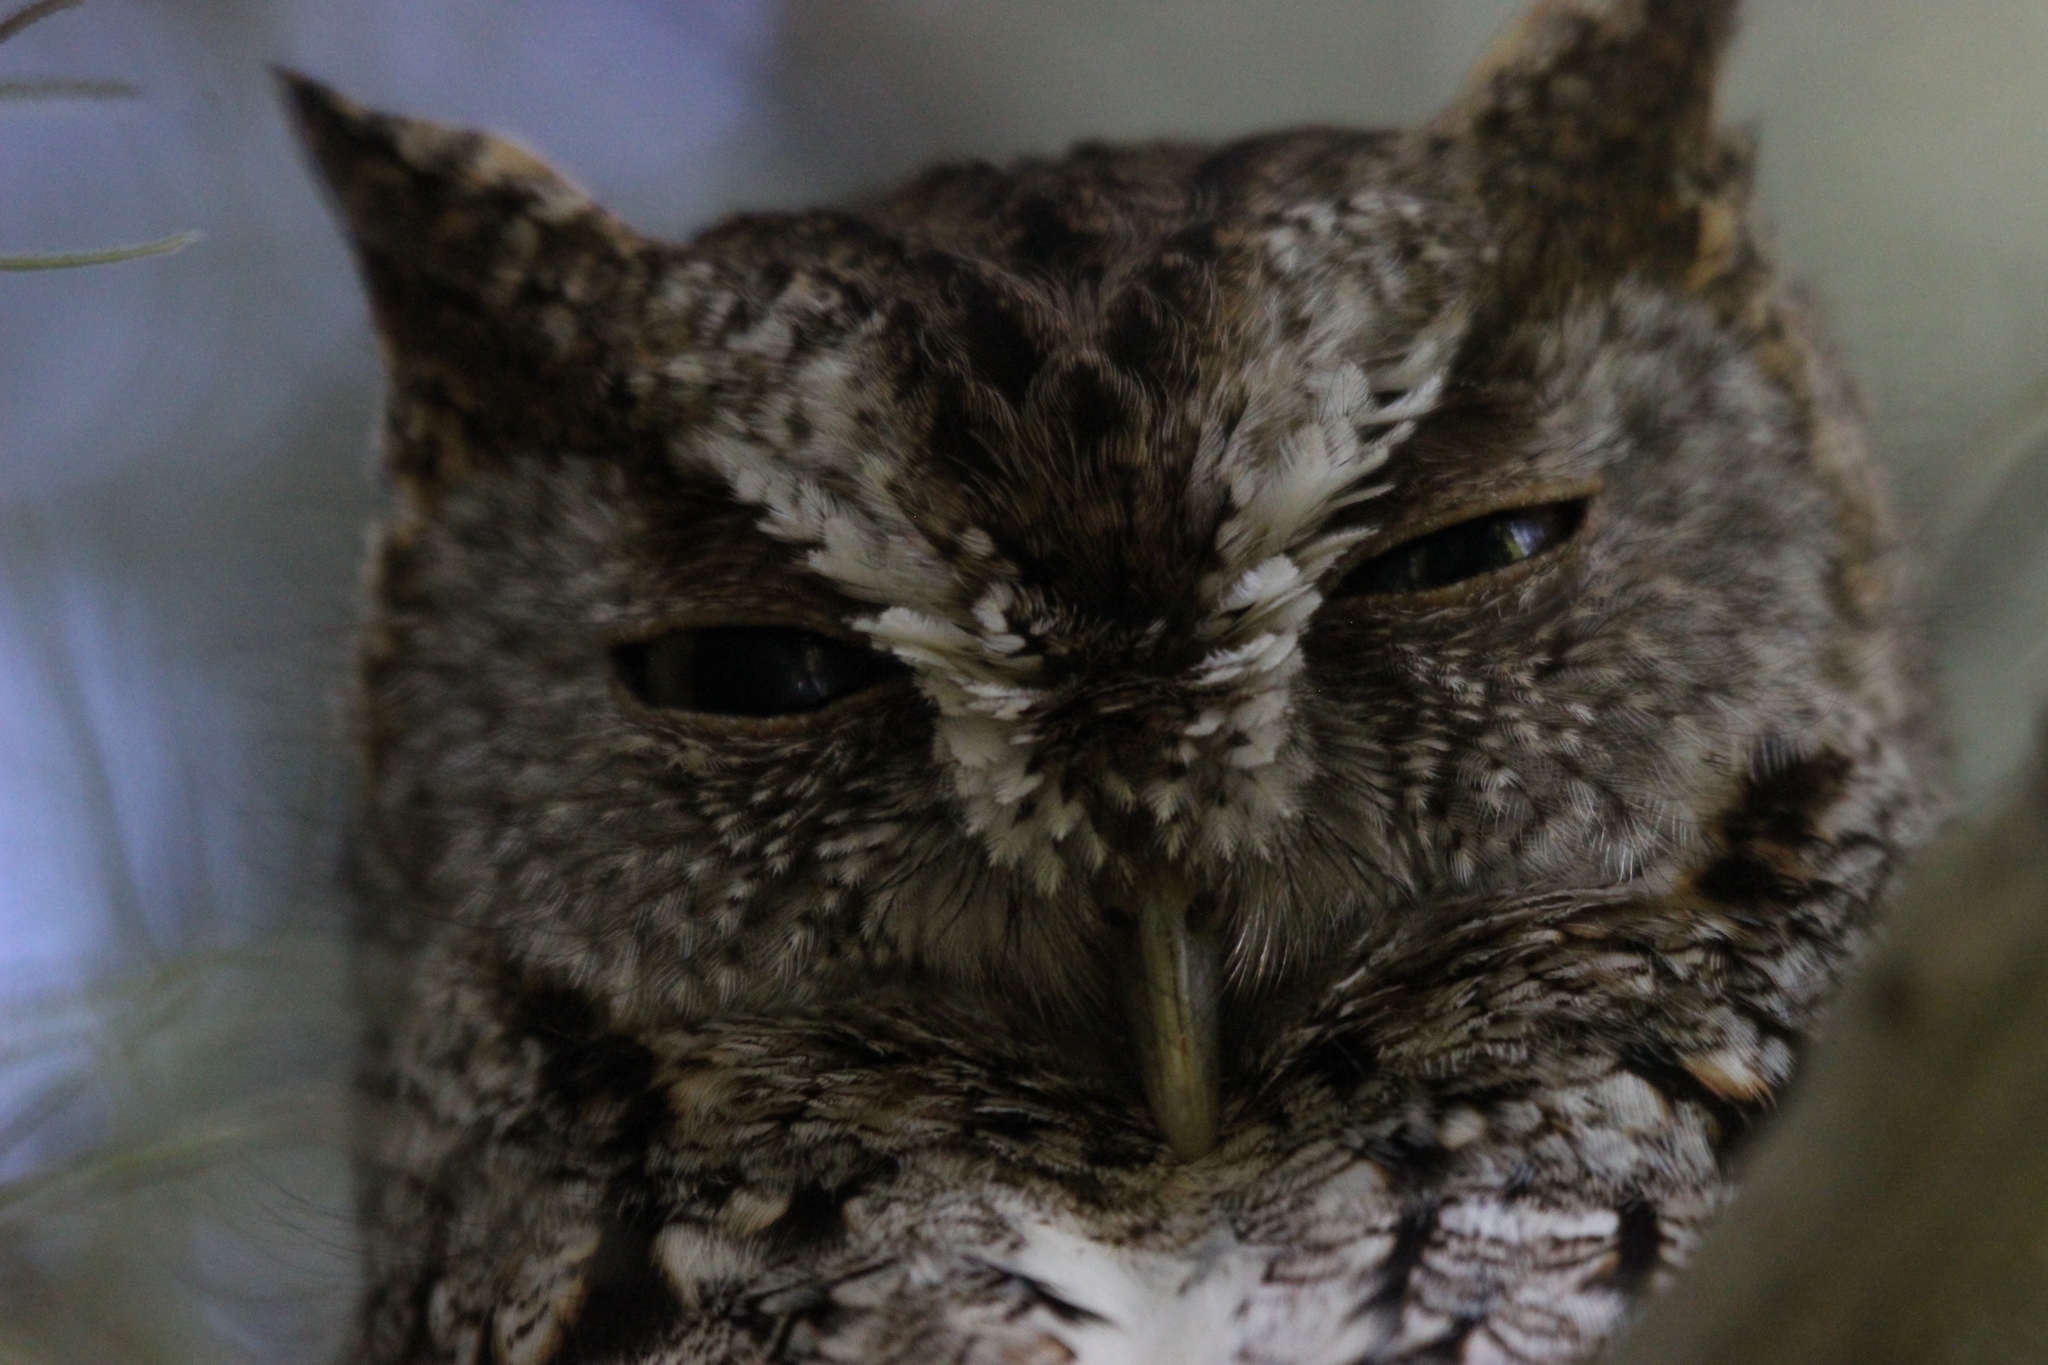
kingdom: Animalia
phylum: Chordata
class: Aves
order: Strigiformes
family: Strigidae
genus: Megascops
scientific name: Megascops asio
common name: Eastern screech-owl
